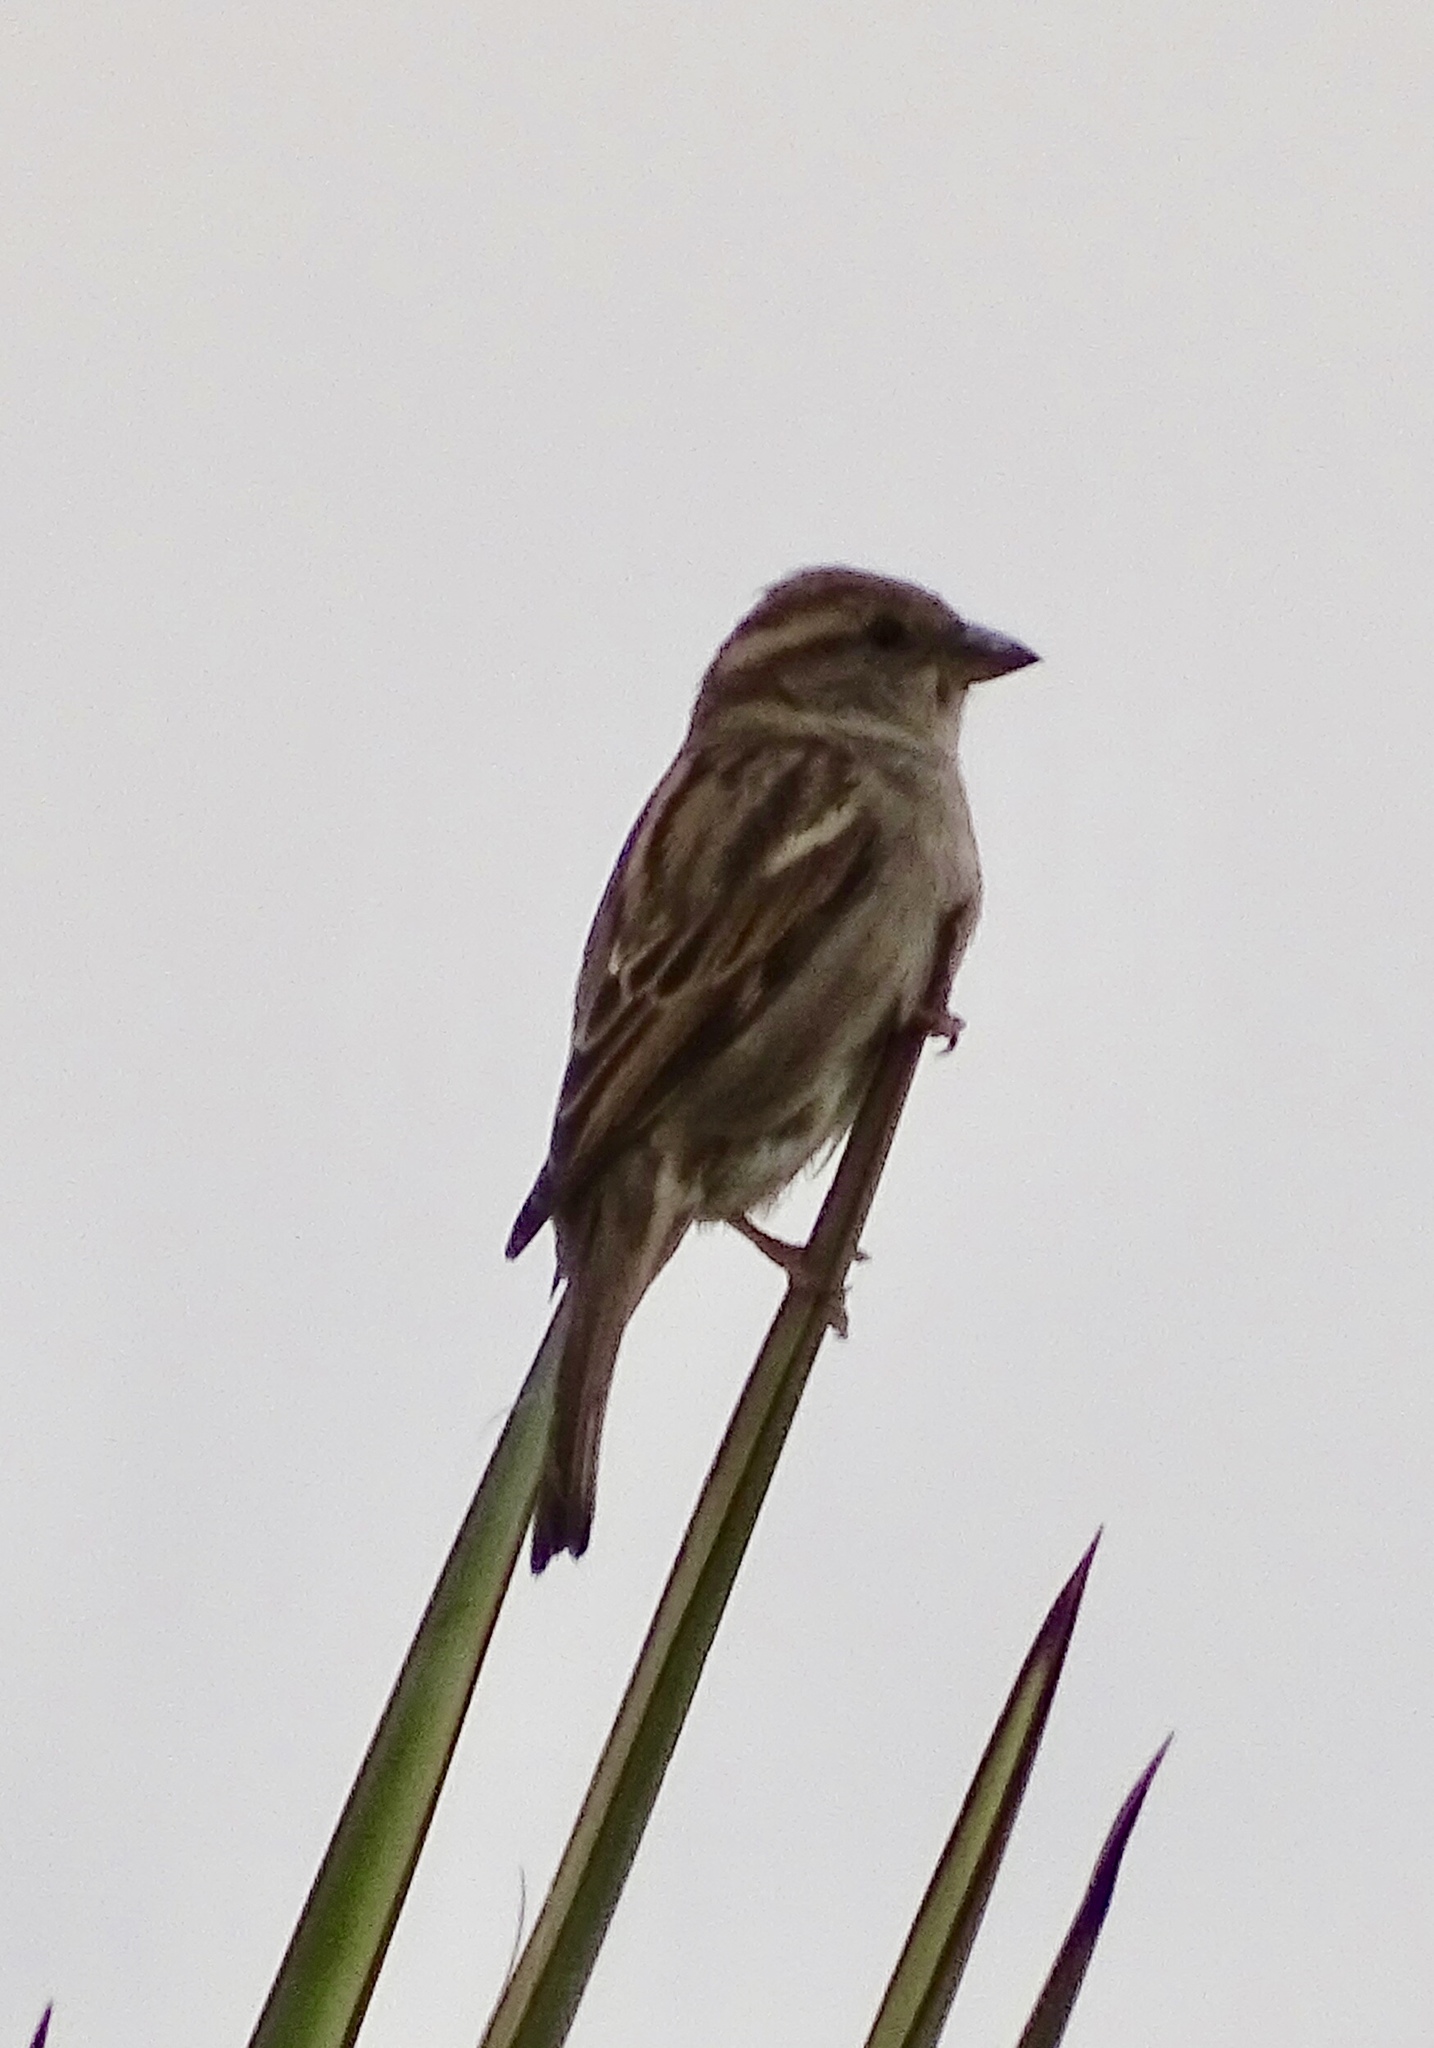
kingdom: Animalia
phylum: Chordata
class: Aves
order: Passeriformes
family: Passeridae
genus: Passer
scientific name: Passer domesticus
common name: House sparrow
